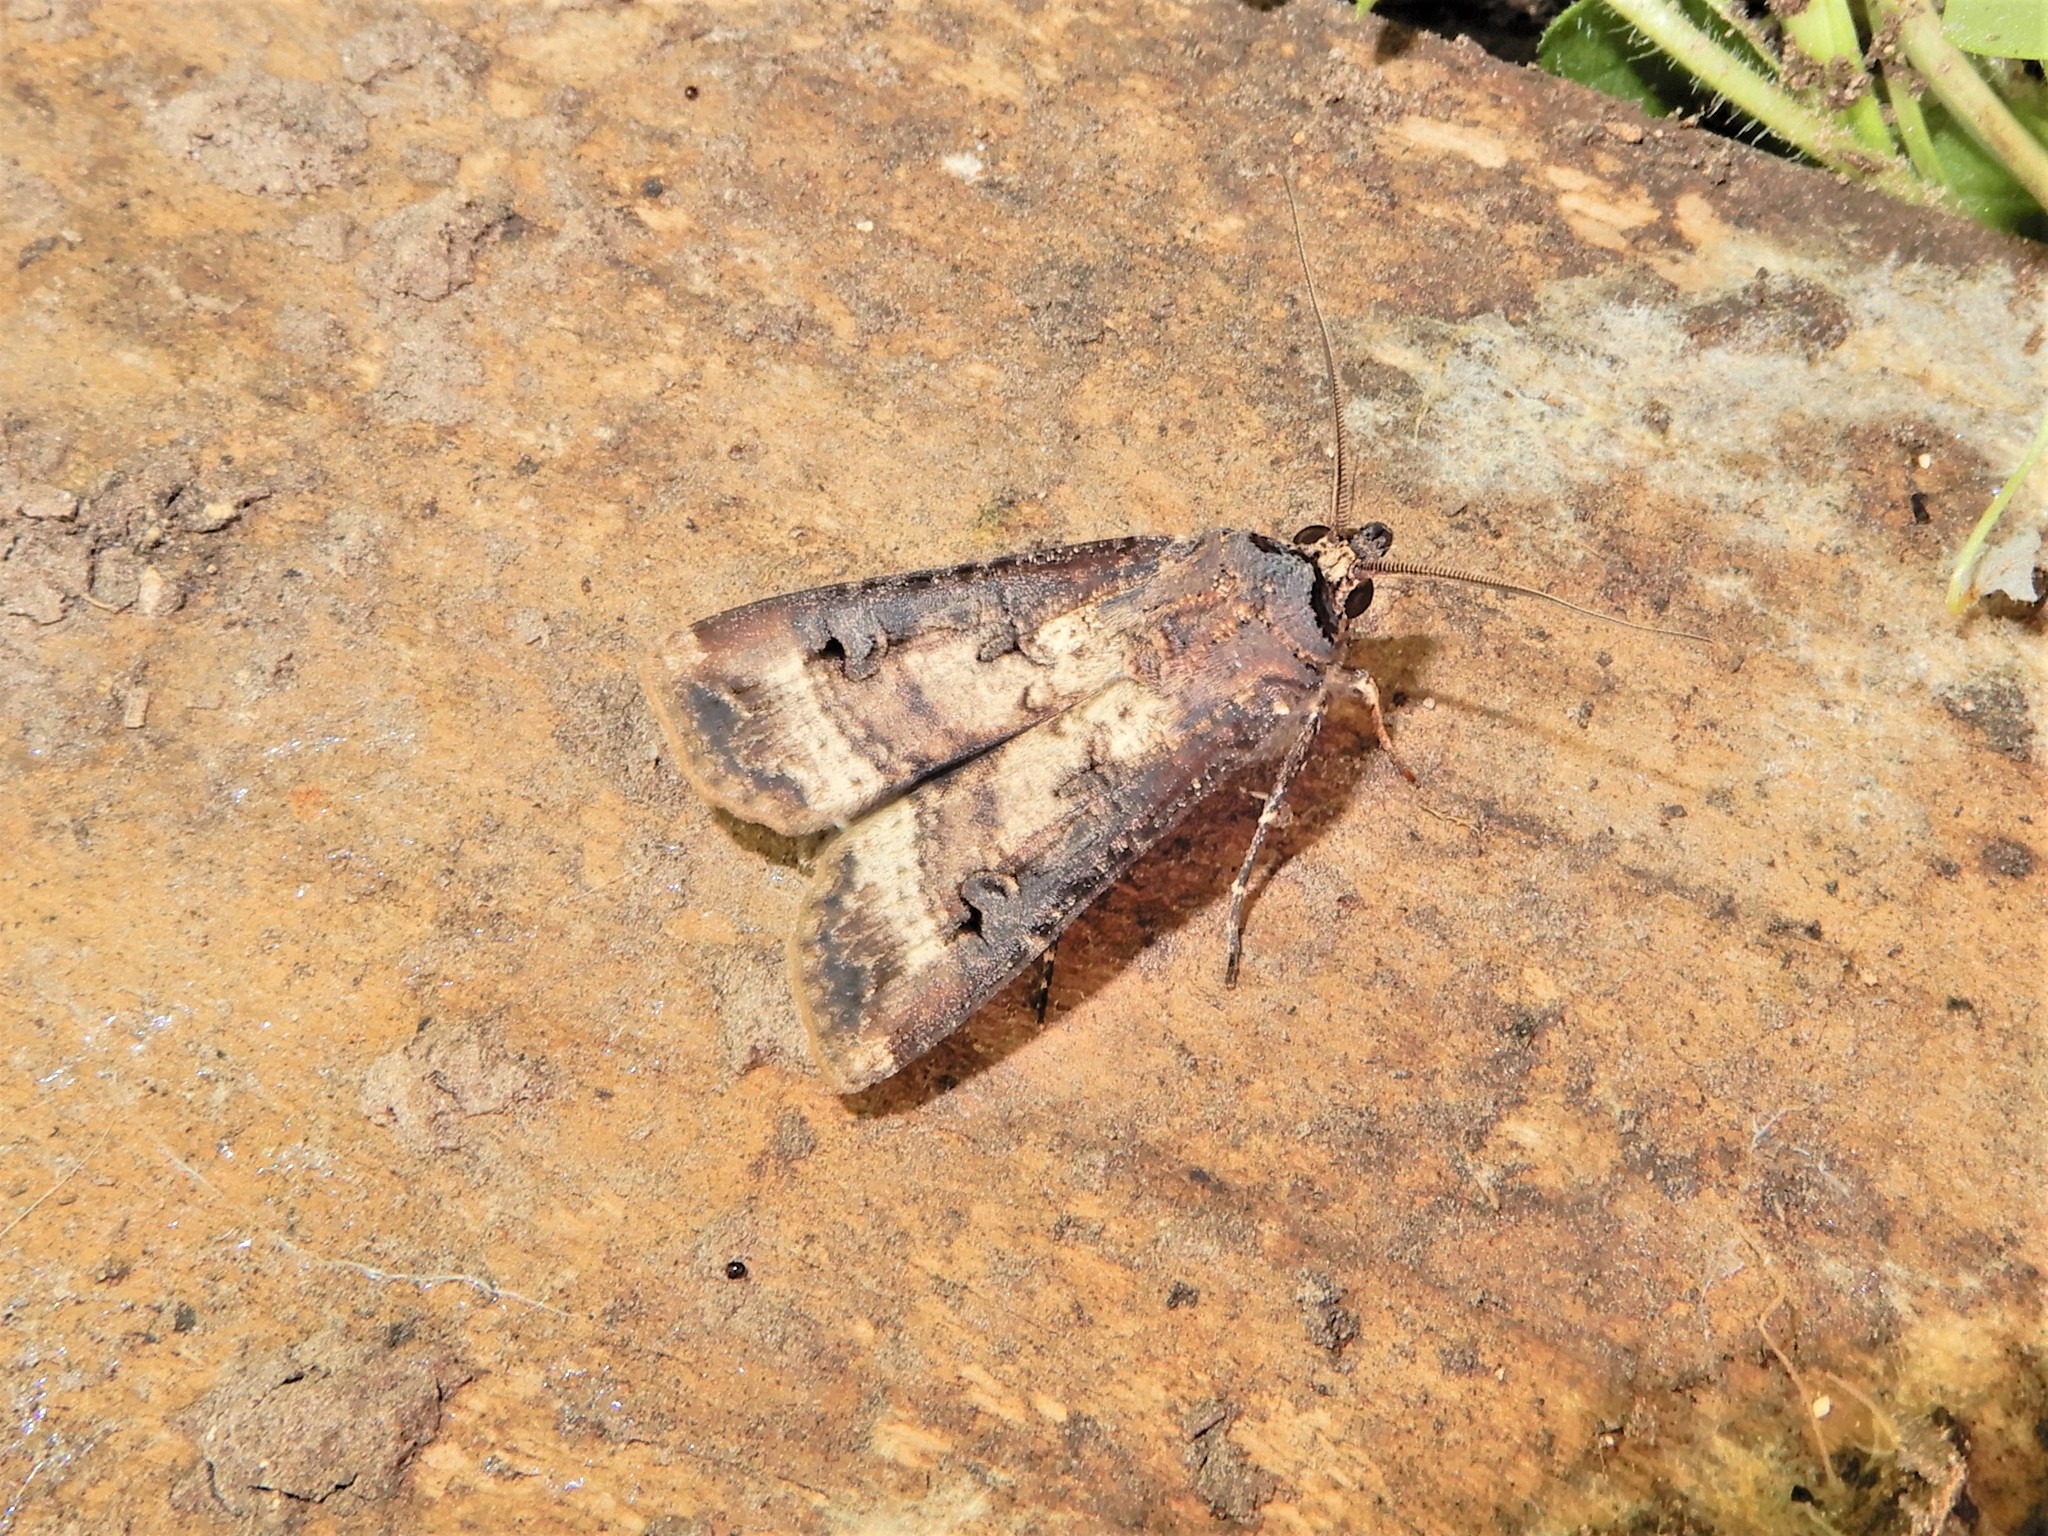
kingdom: Animalia
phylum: Arthropoda
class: Insecta
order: Lepidoptera
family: Noctuidae
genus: Agrotis
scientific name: Agrotis ipsilon
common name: Dark sword-grass
